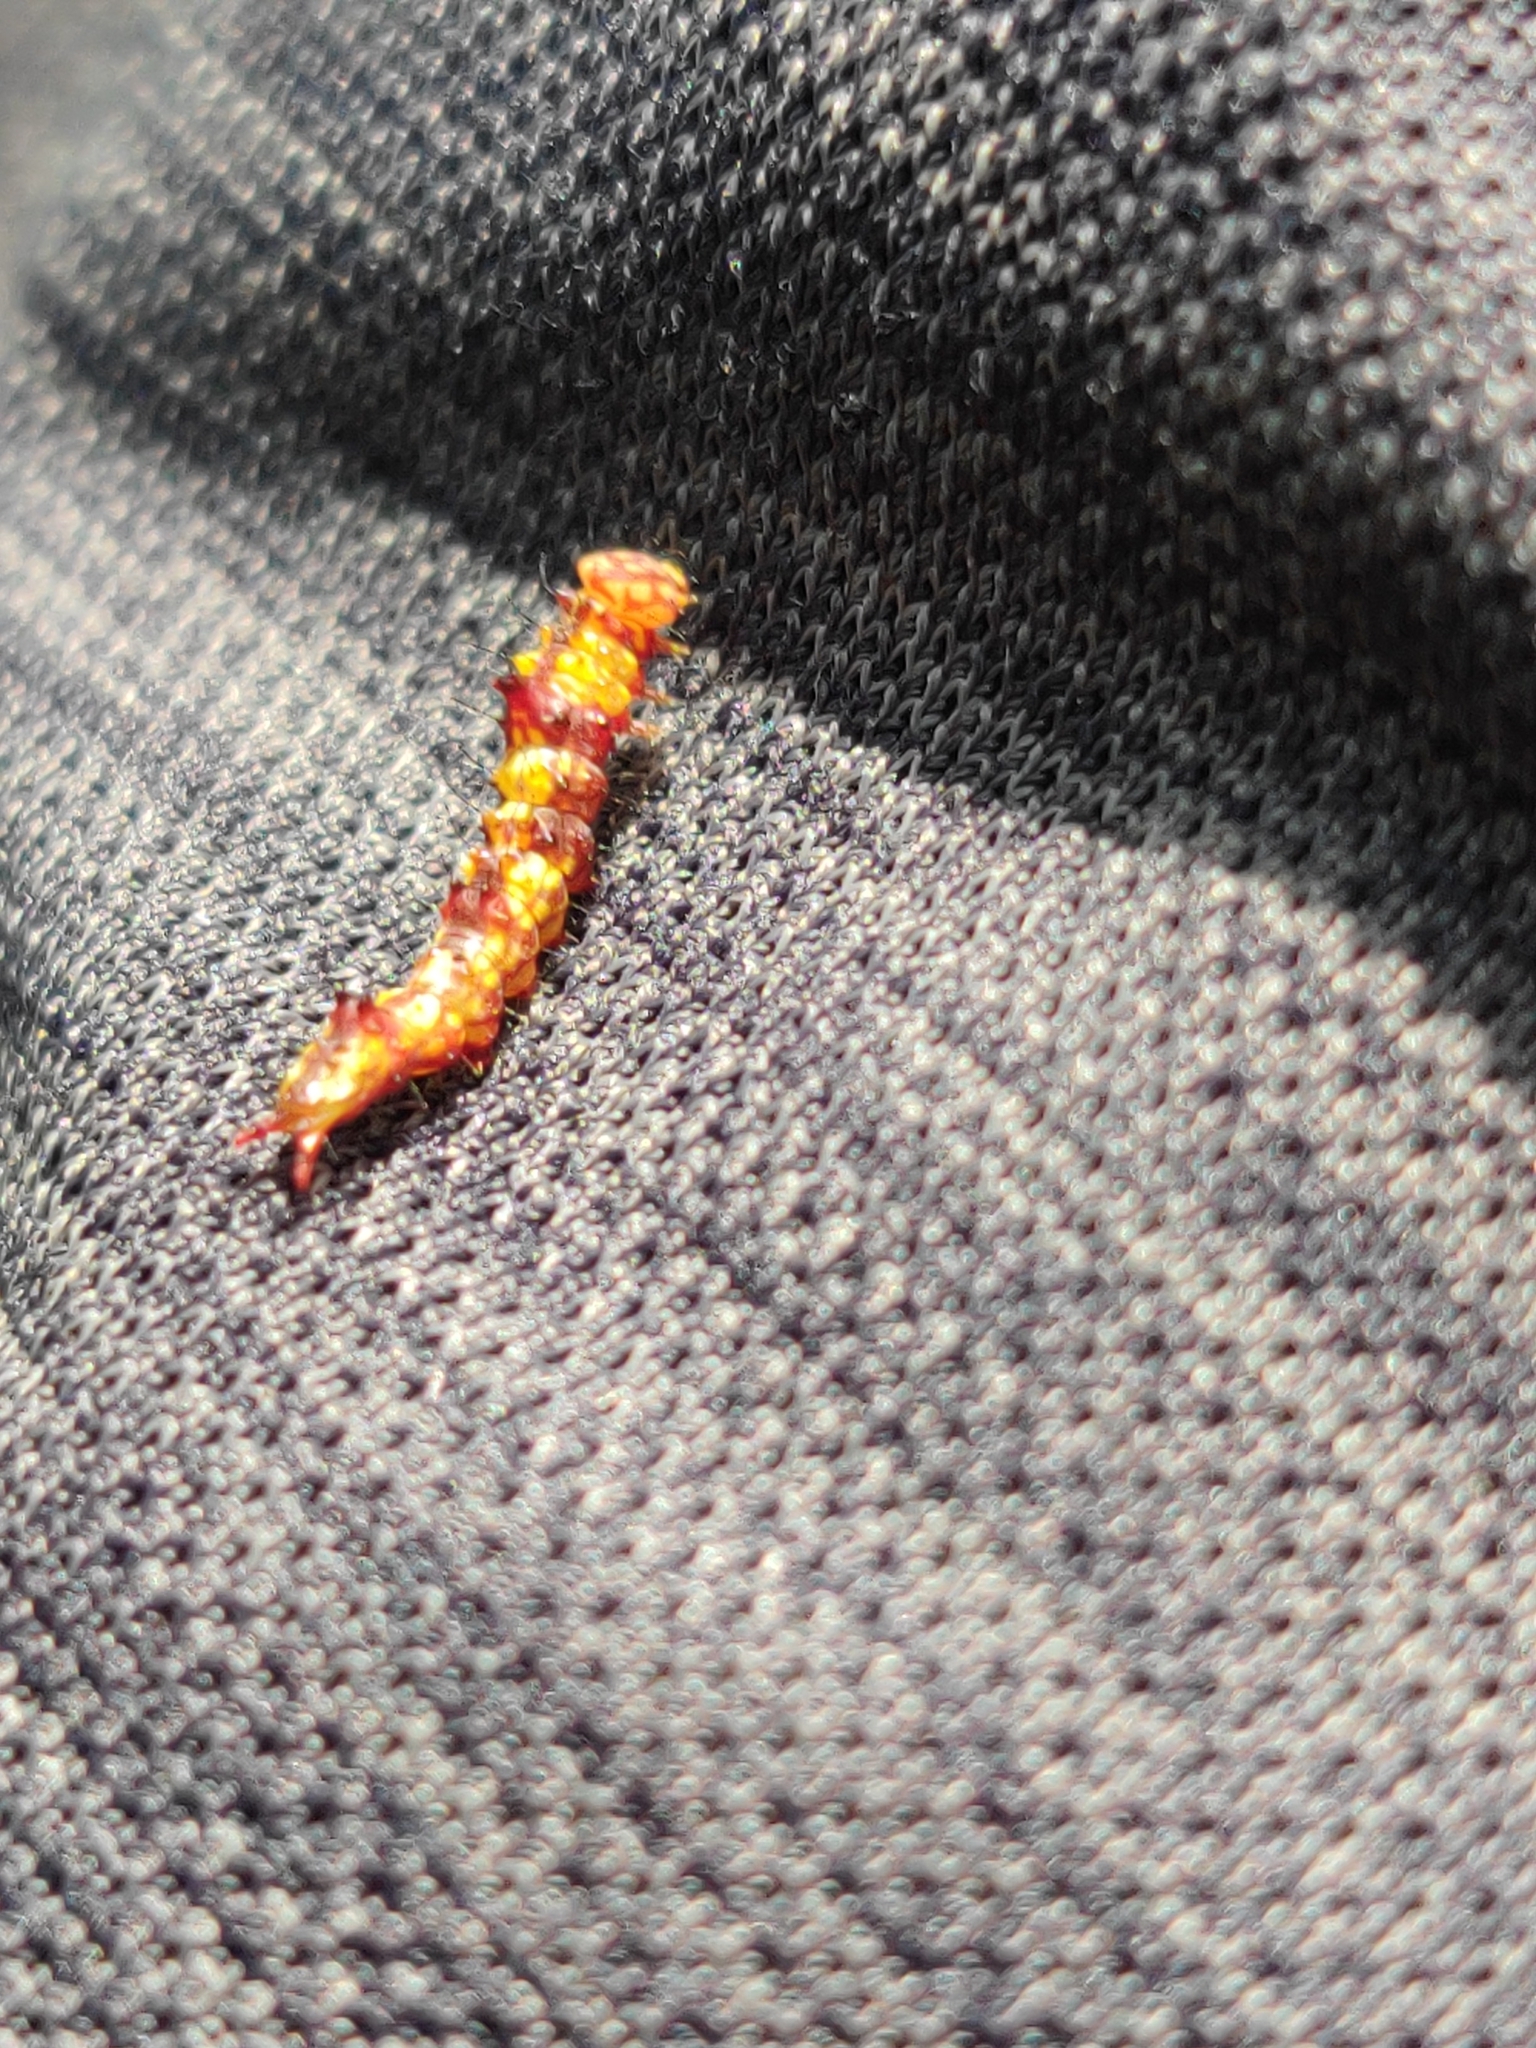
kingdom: Animalia
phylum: Arthropoda
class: Insecta
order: Lepidoptera
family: Notodontidae
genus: Schizura
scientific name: Schizura ipomaeae
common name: Morning-glory prominent
